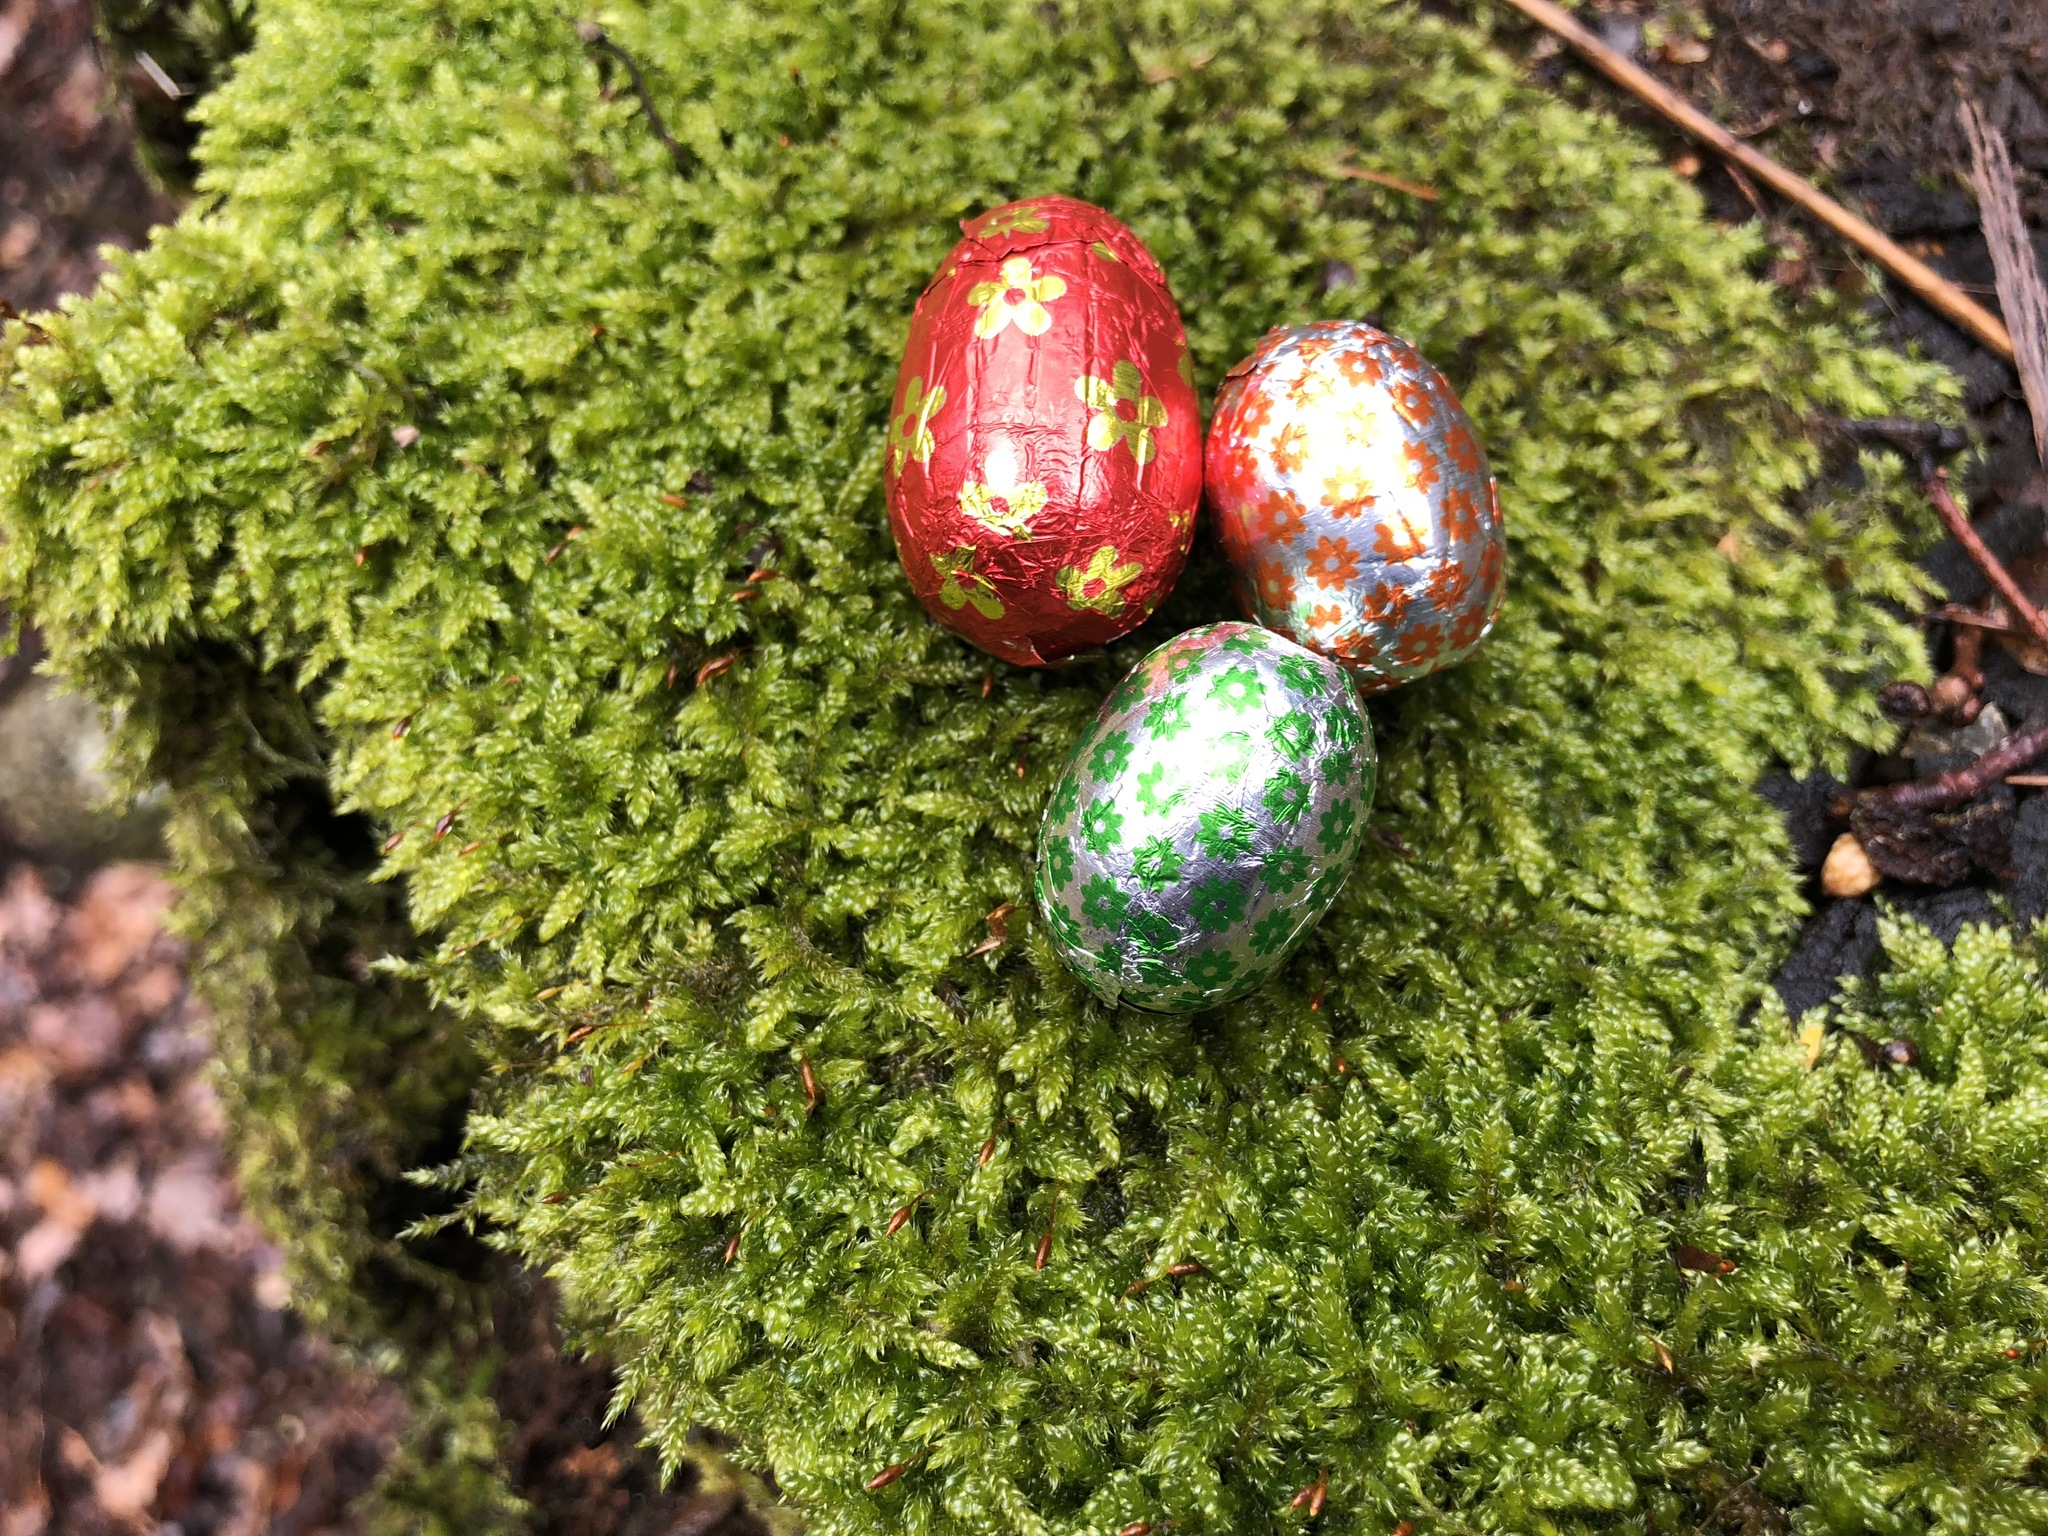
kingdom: Plantae
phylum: Bryophyta
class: Bryopsida
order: Hypnales
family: Hypnaceae
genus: Hypnum
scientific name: Hypnum cupressiforme
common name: Cypress-leaved plait-moss
